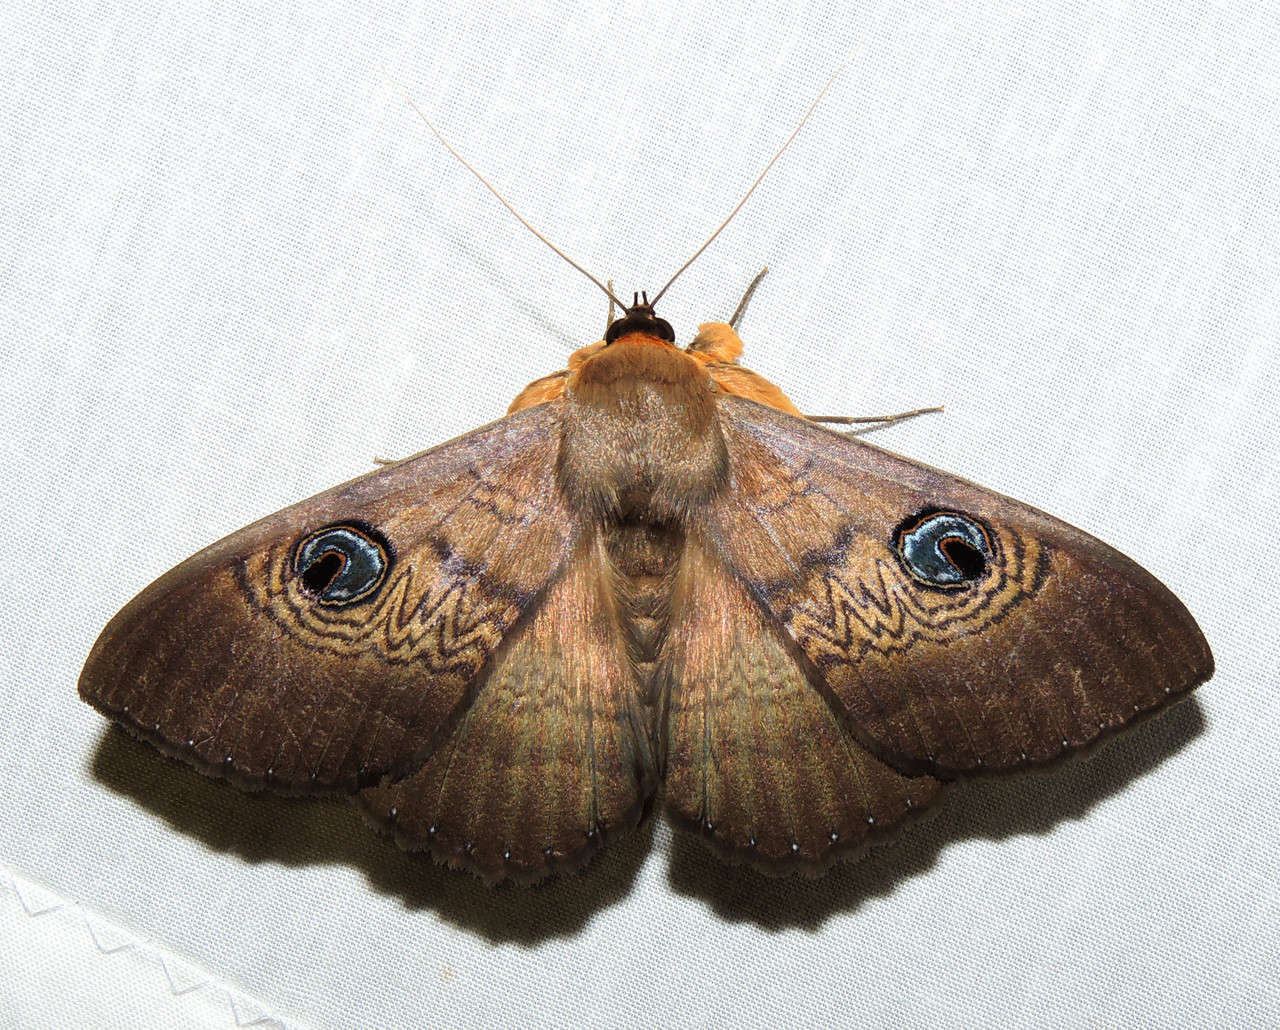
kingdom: Animalia
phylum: Arthropoda
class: Insecta
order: Lepidoptera
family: Erebidae
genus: Dasypodia
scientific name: Dasypodia selenophora
